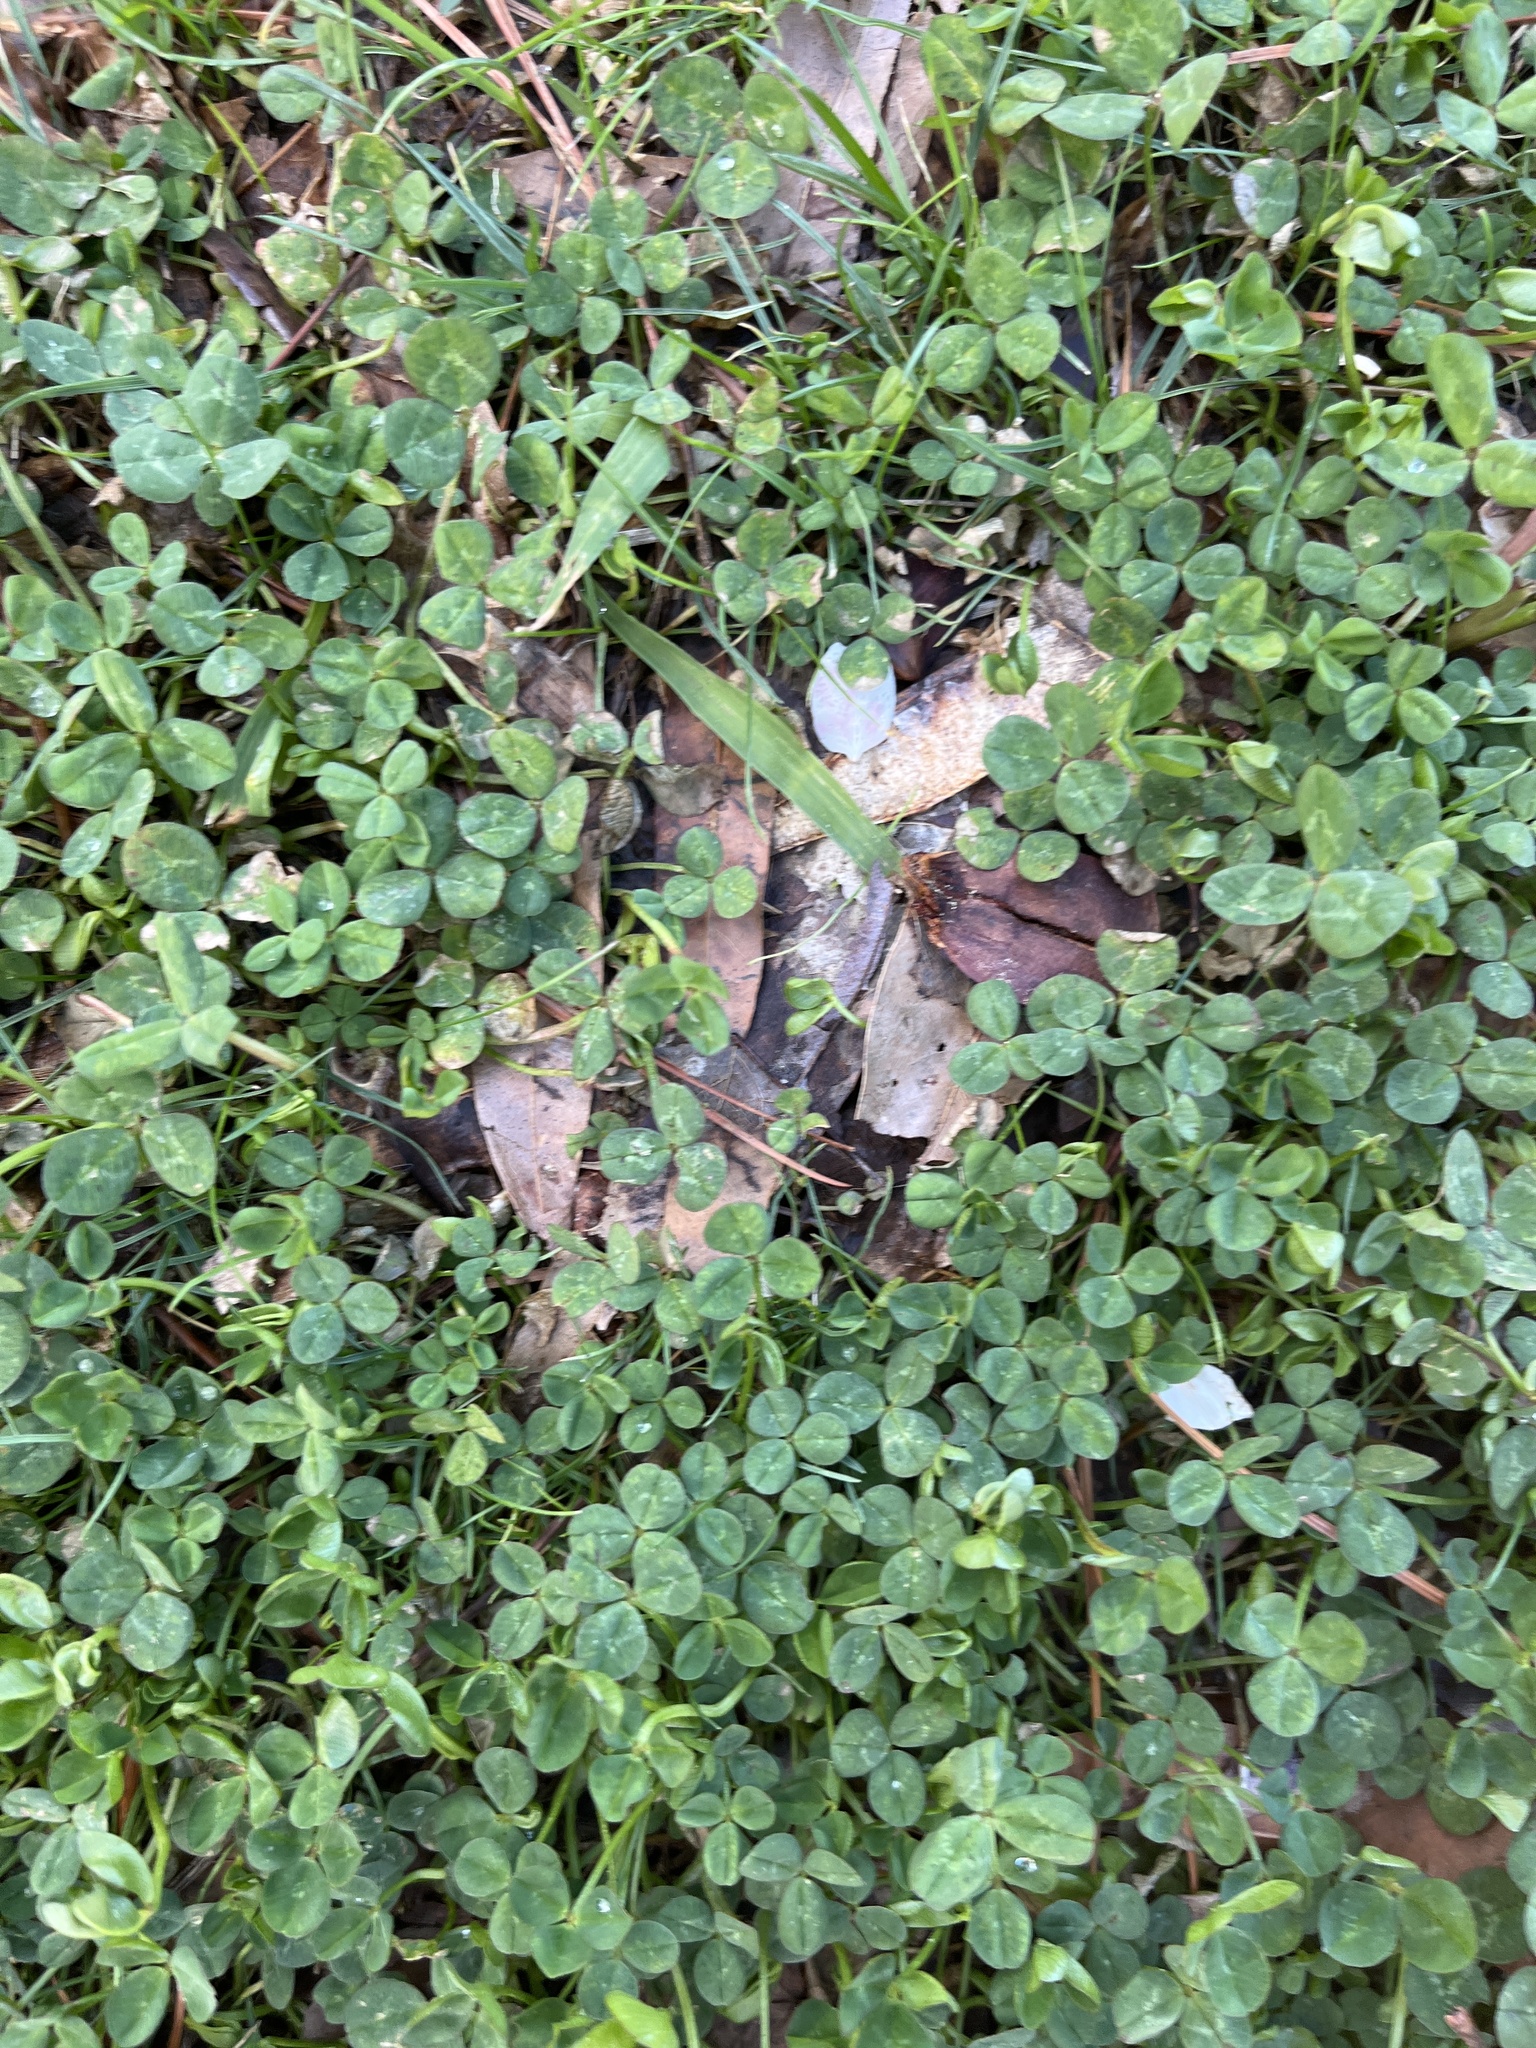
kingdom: Plantae
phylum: Tracheophyta
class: Magnoliopsida
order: Fabales
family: Fabaceae
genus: Trifolium
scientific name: Trifolium repens
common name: White clover
